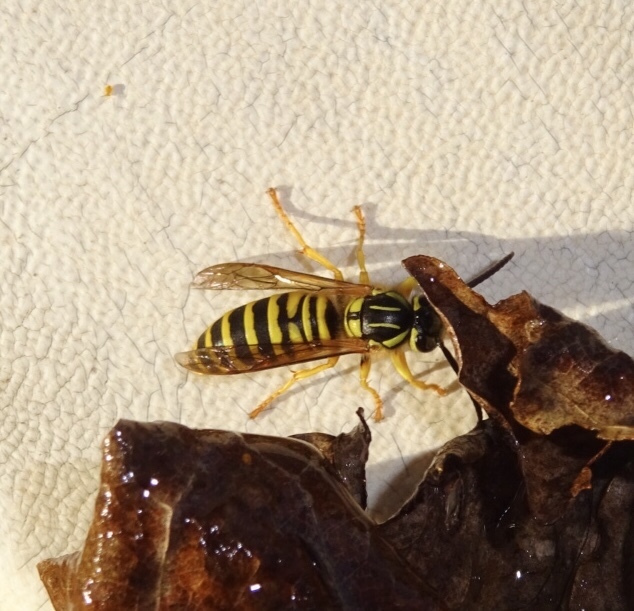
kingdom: Animalia
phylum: Arthropoda
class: Insecta
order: Hymenoptera
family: Vespidae
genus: Vespula
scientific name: Vespula squamosa
